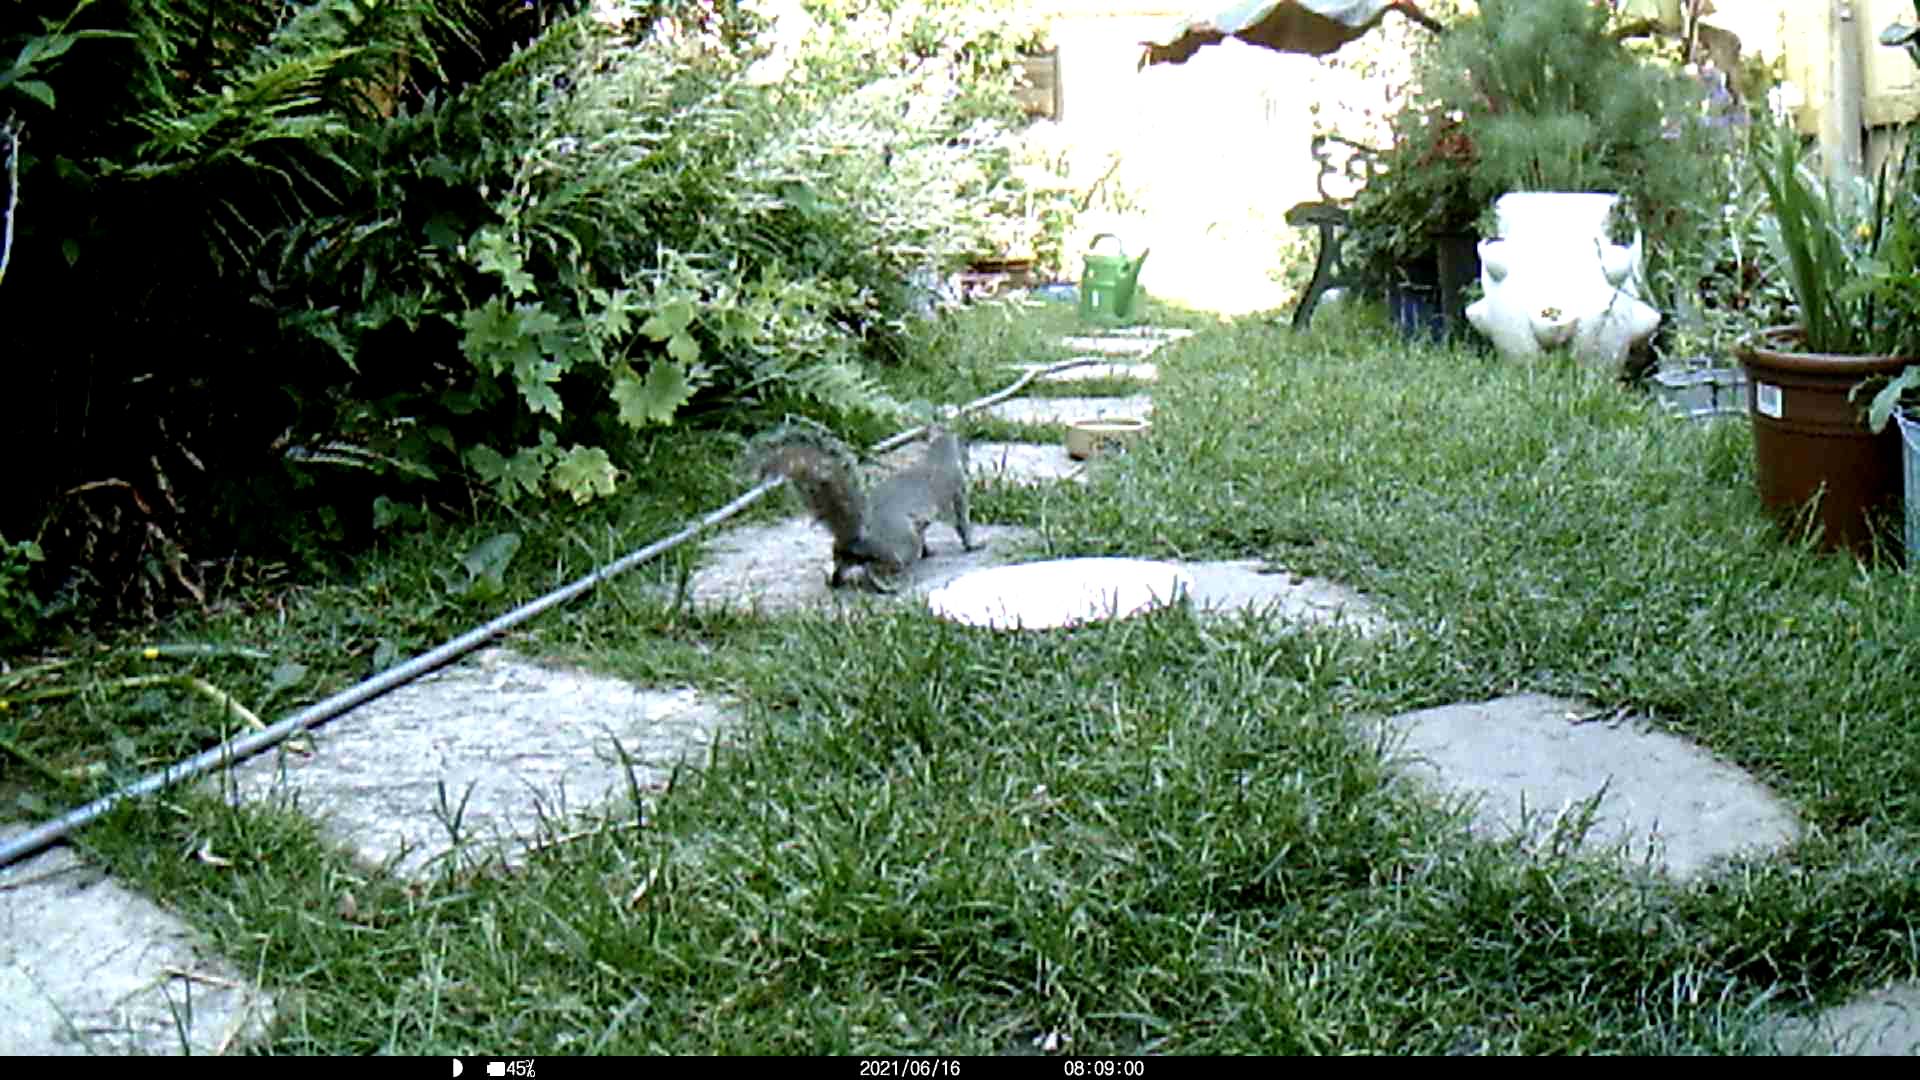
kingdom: Animalia
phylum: Chordata
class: Mammalia
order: Rodentia
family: Sciuridae
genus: Sciurus
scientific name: Sciurus carolinensis
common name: Eastern gray squirrel
